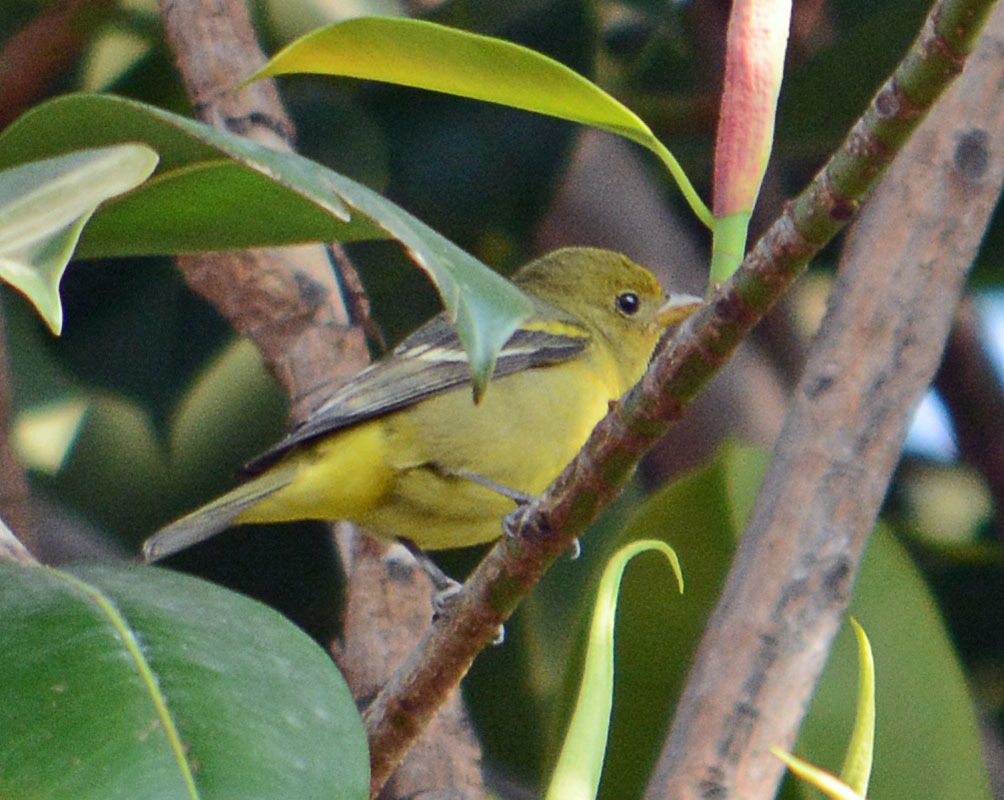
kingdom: Animalia
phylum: Chordata
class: Aves
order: Passeriformes
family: Cardinalidae
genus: Piranga
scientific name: Piranga ludoviciana
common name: Western tanager
